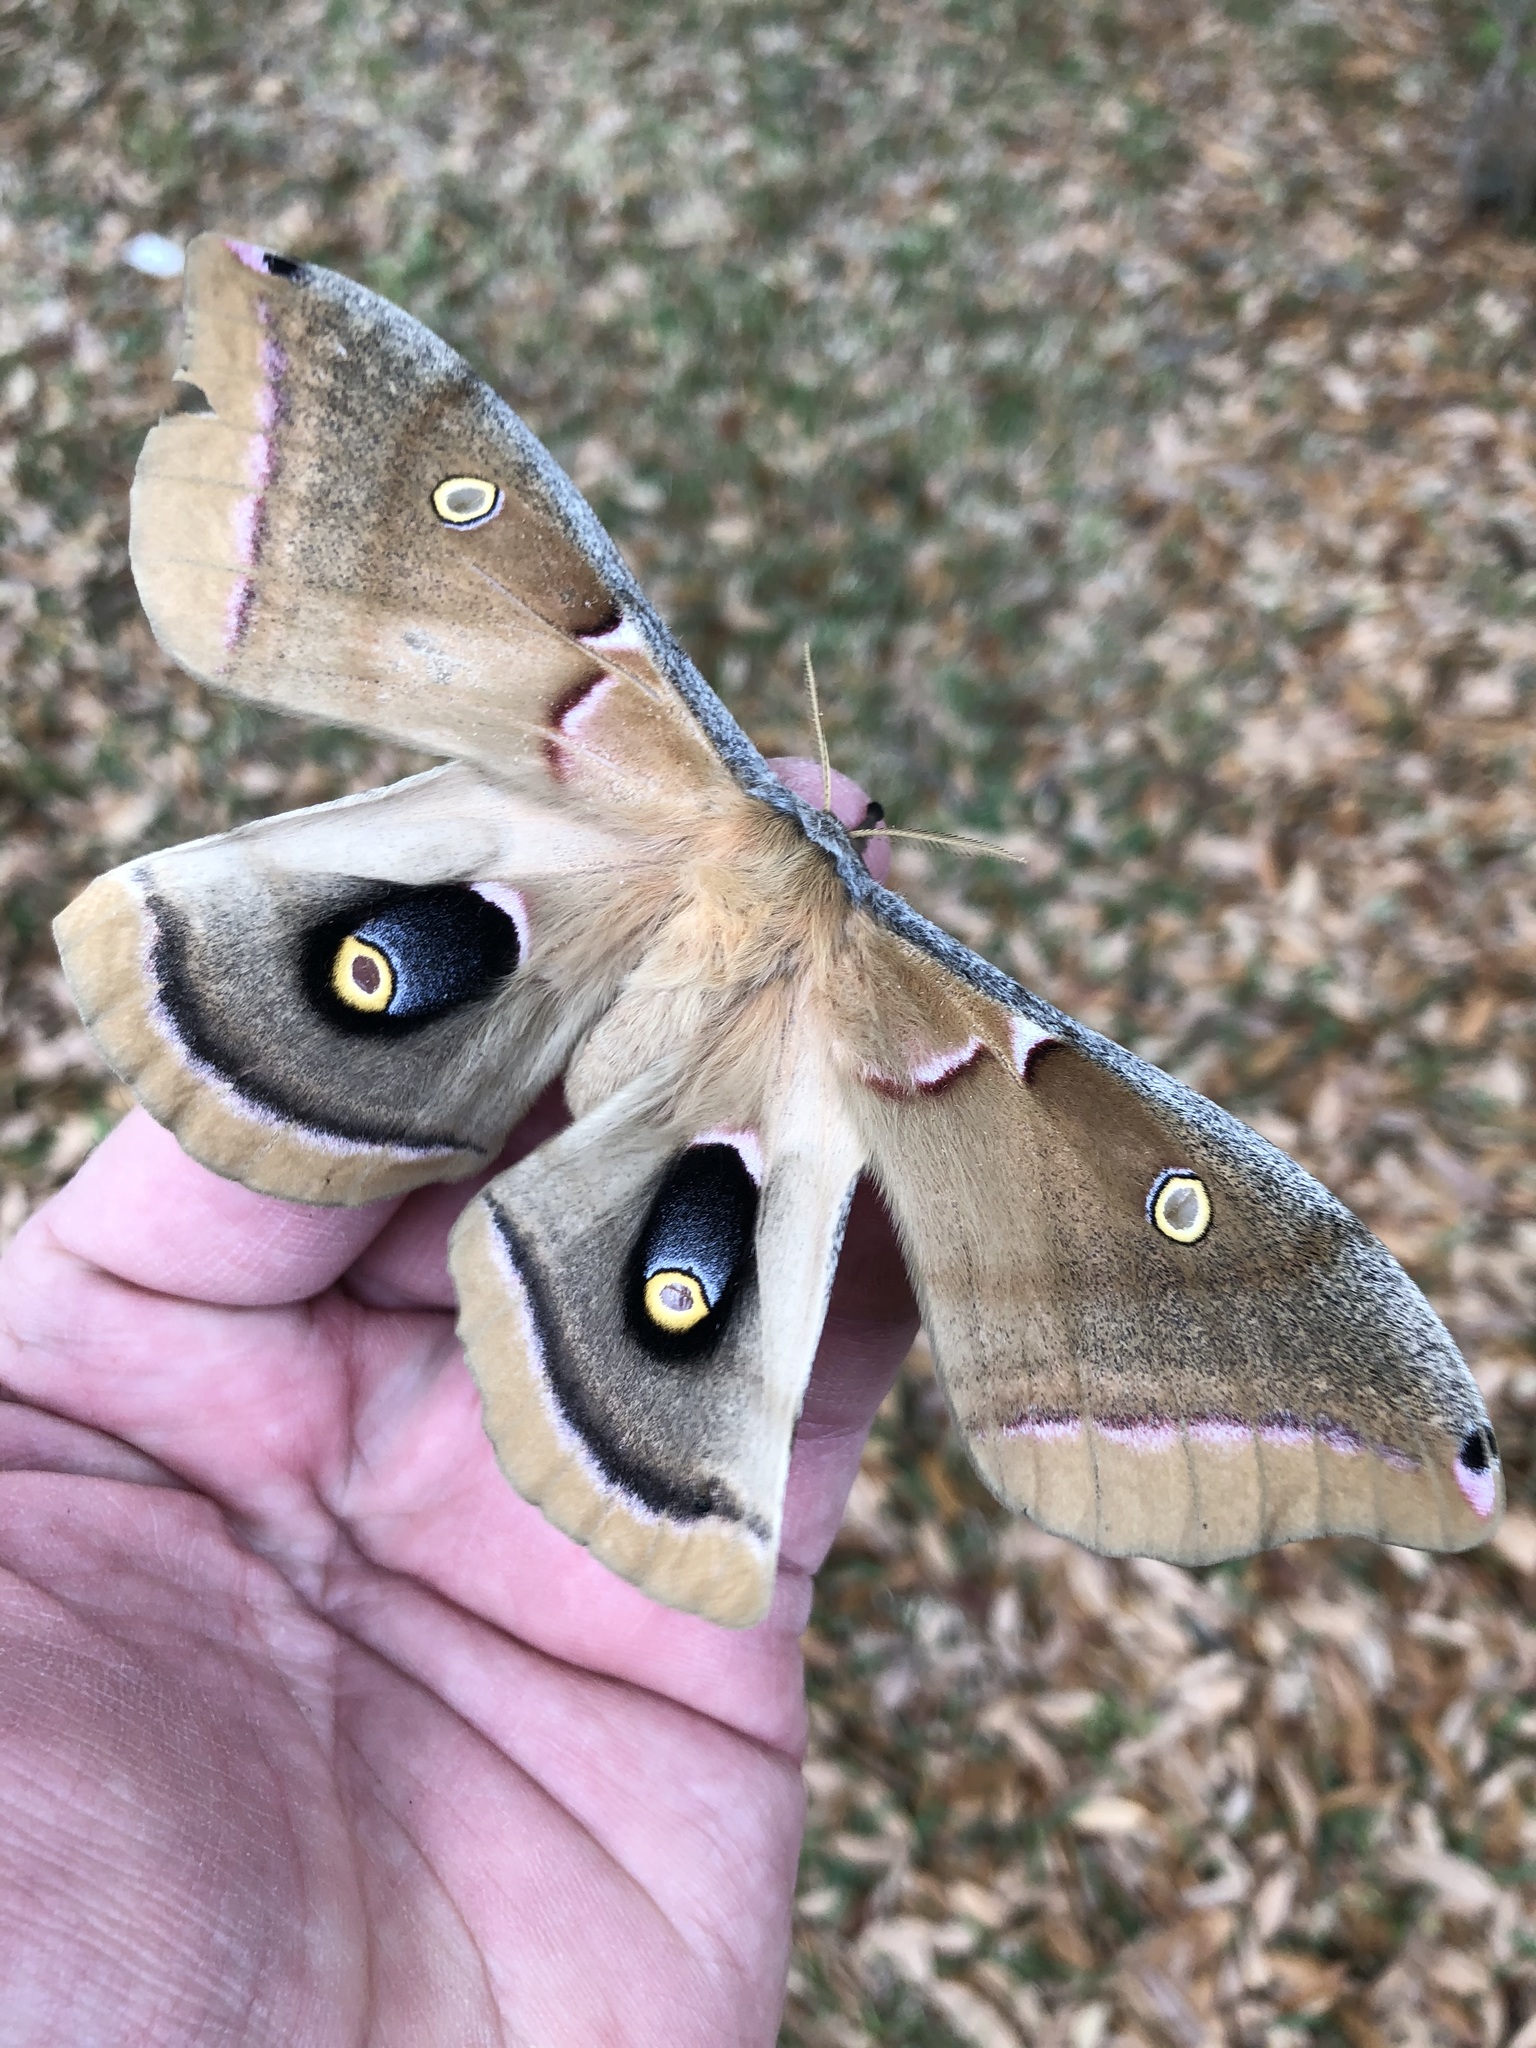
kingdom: Animalia
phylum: Arthropoda
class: Insecta
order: Lepidoptera
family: Saturniidae
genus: Antheraea
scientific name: Antheraea polyphemus
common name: Polyphemus moth
